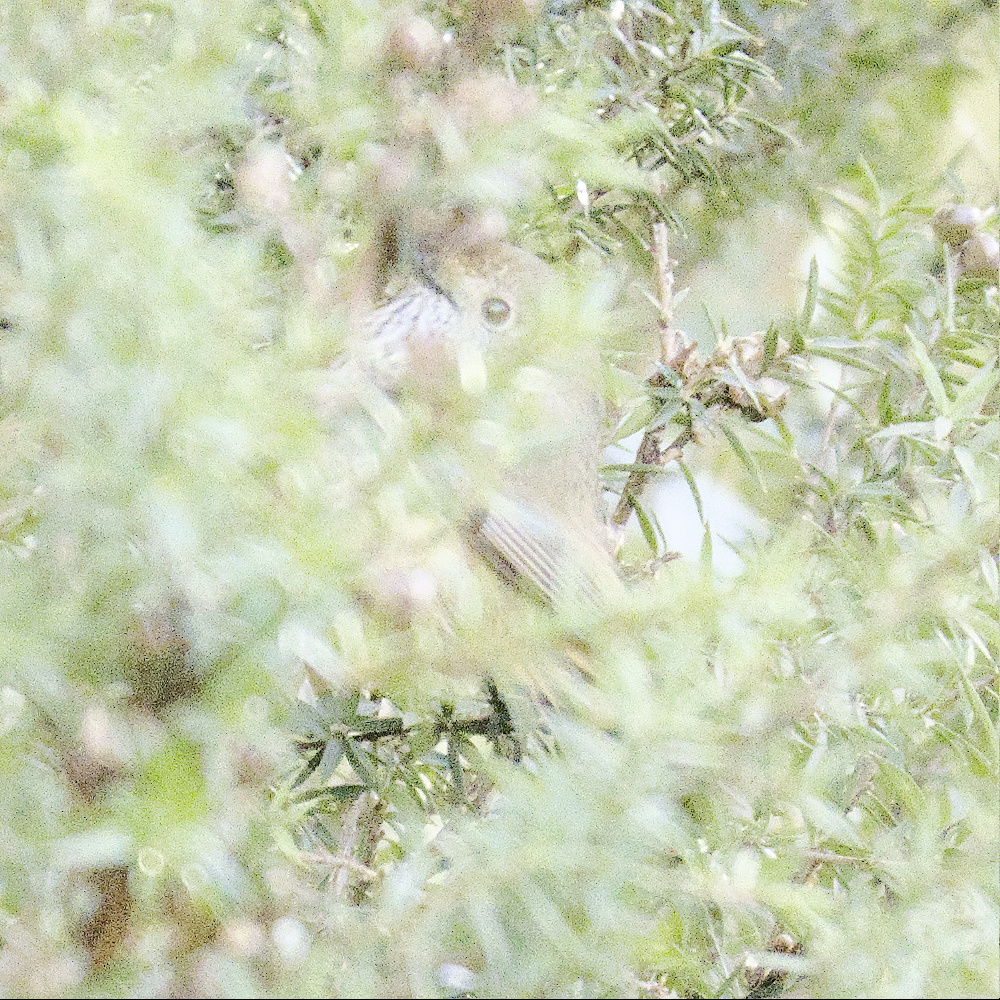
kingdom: Animalia
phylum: Chordata
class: Aves
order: Passeriformes
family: Acanthizidae
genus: Acanthiza
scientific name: Acanthiza pusilla
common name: Brown thornbill
